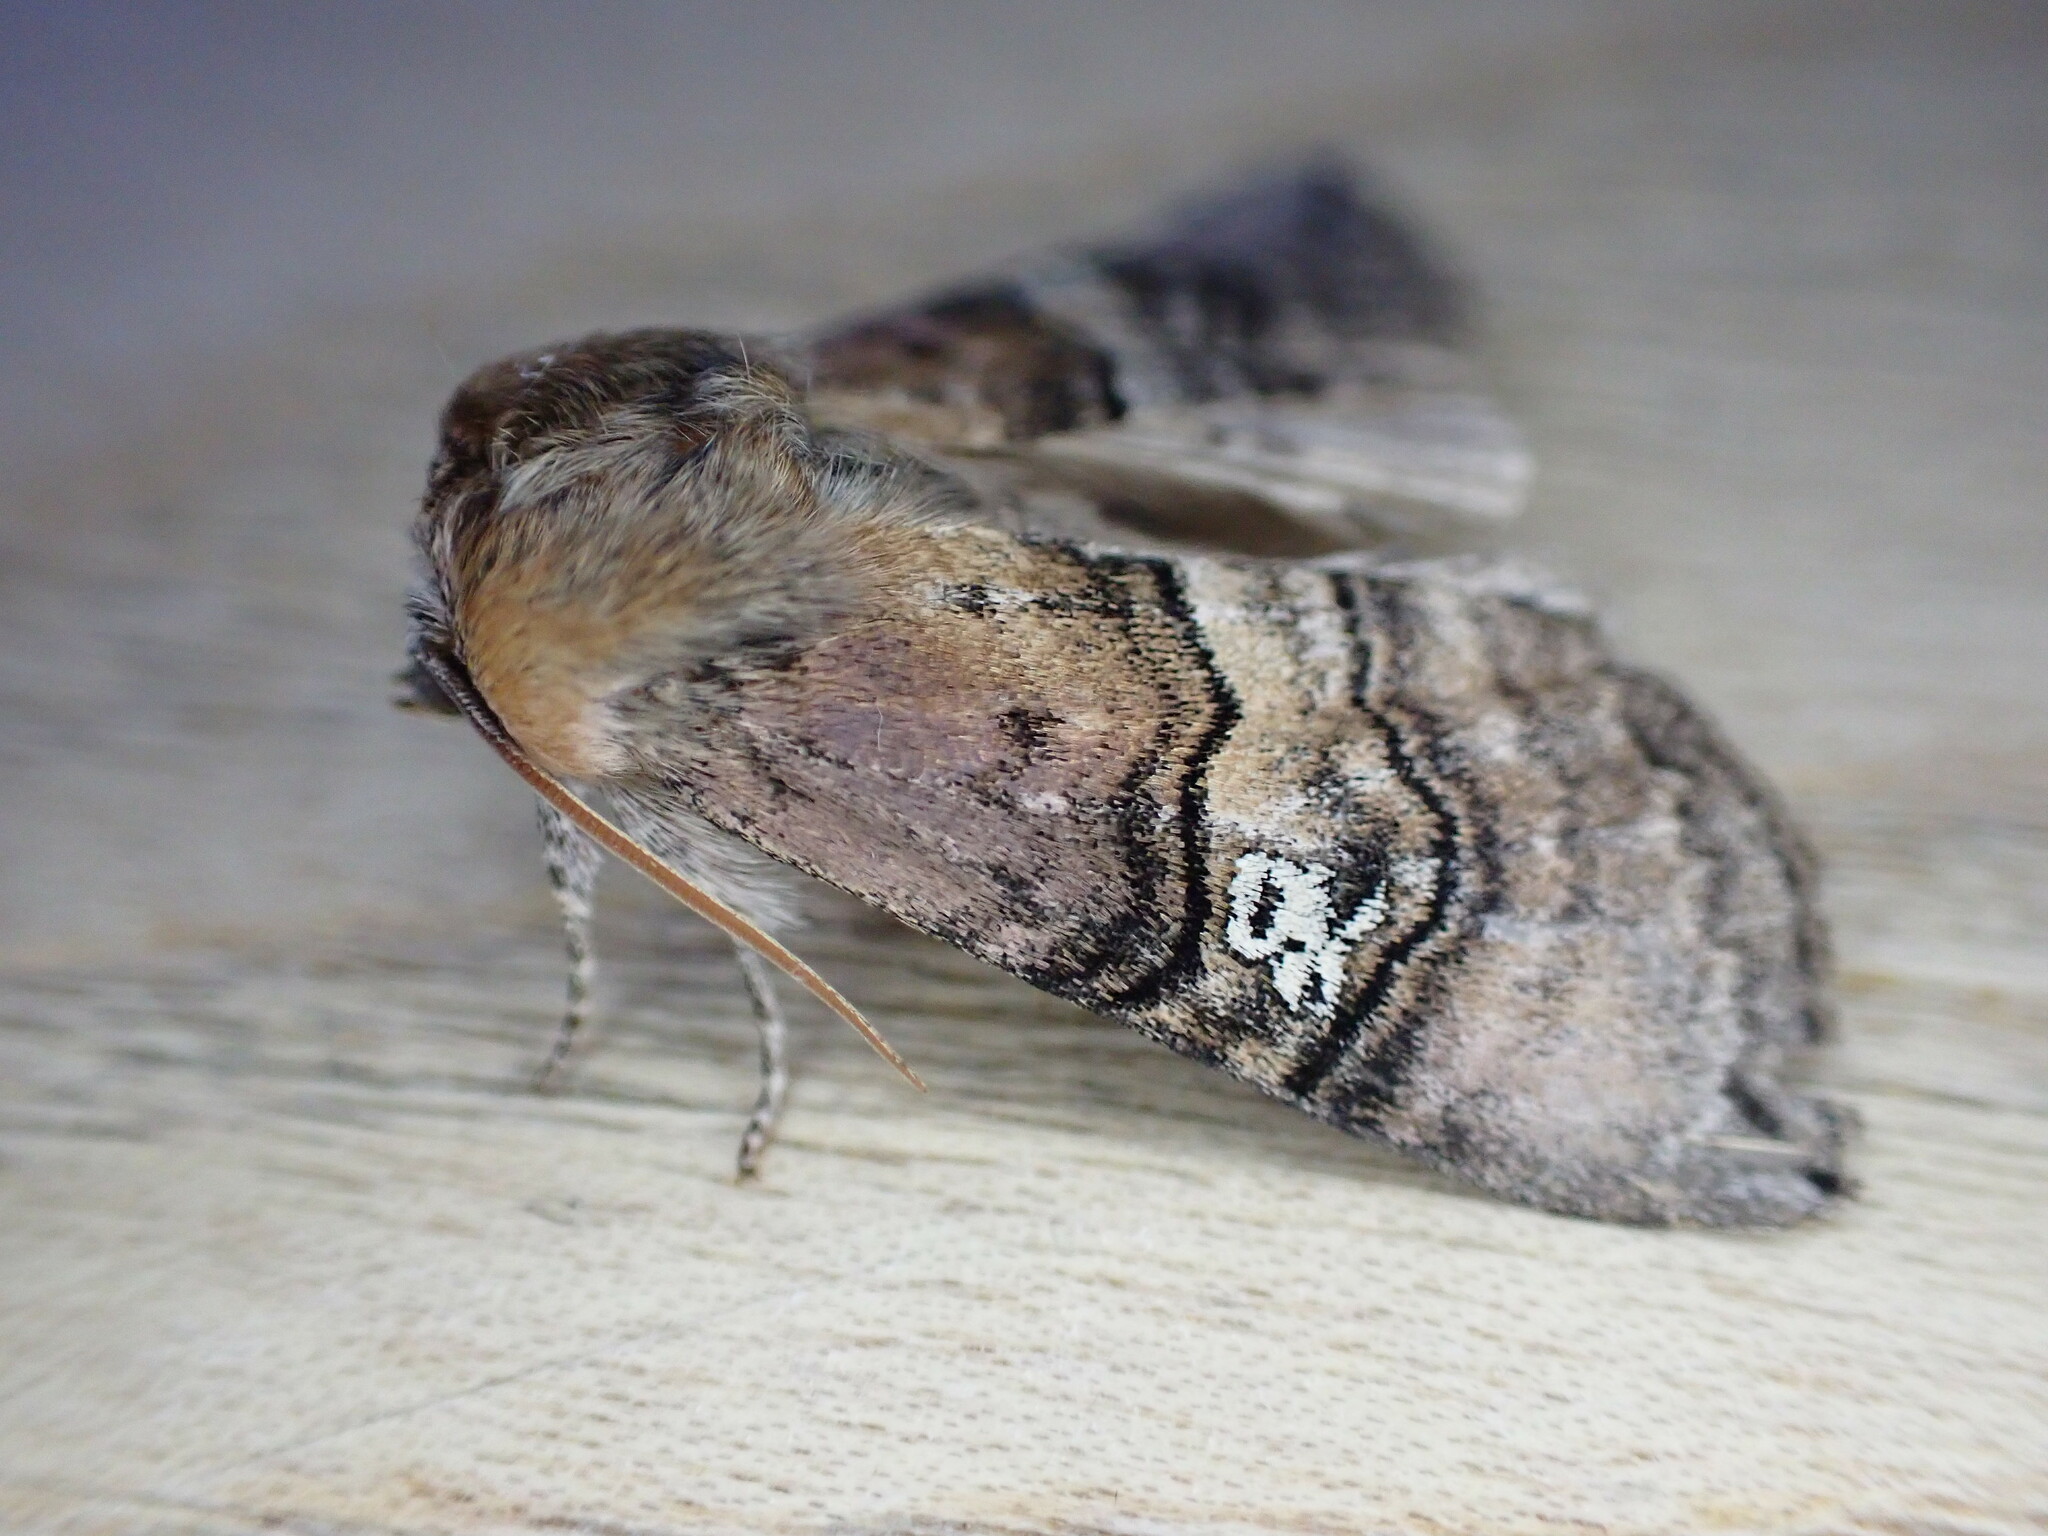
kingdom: Animalia
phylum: Arthropoda
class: Insecta
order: Lepidoptera
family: Drepanidae
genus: Tethea
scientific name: Tethea ocularis
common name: Figure of eighty
